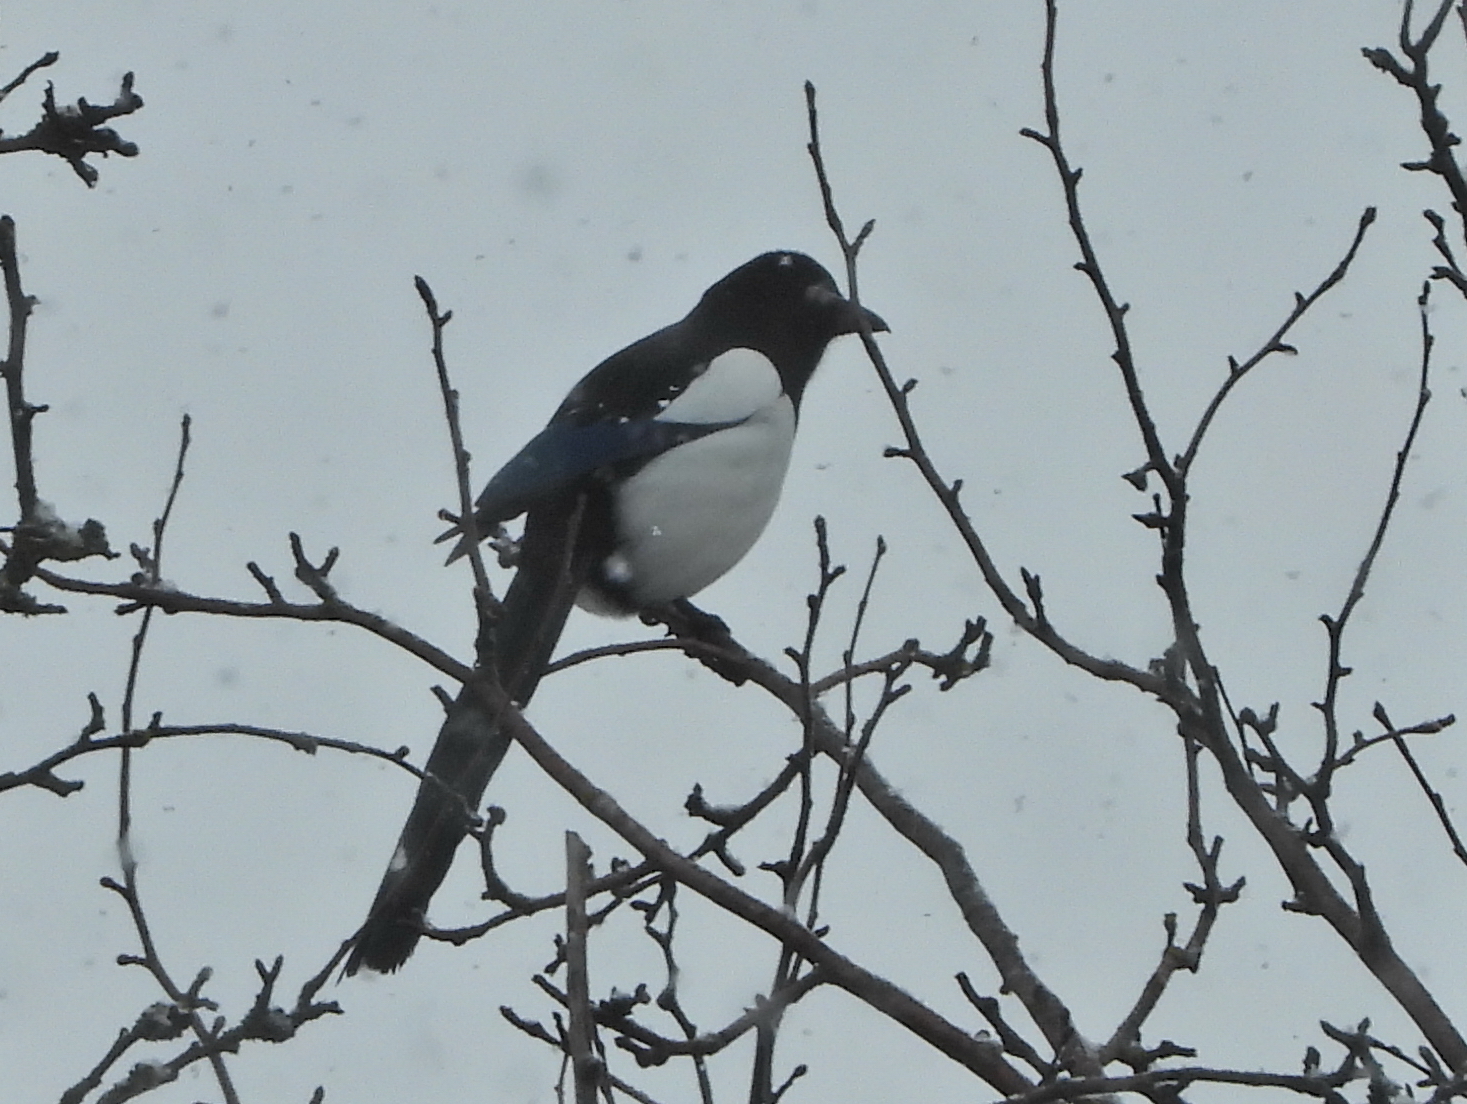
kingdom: Animalia
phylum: Chordata
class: Aves
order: Passeriformes
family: Corvidae
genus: Pica
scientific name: Pica pica
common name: Eurasian magpie
